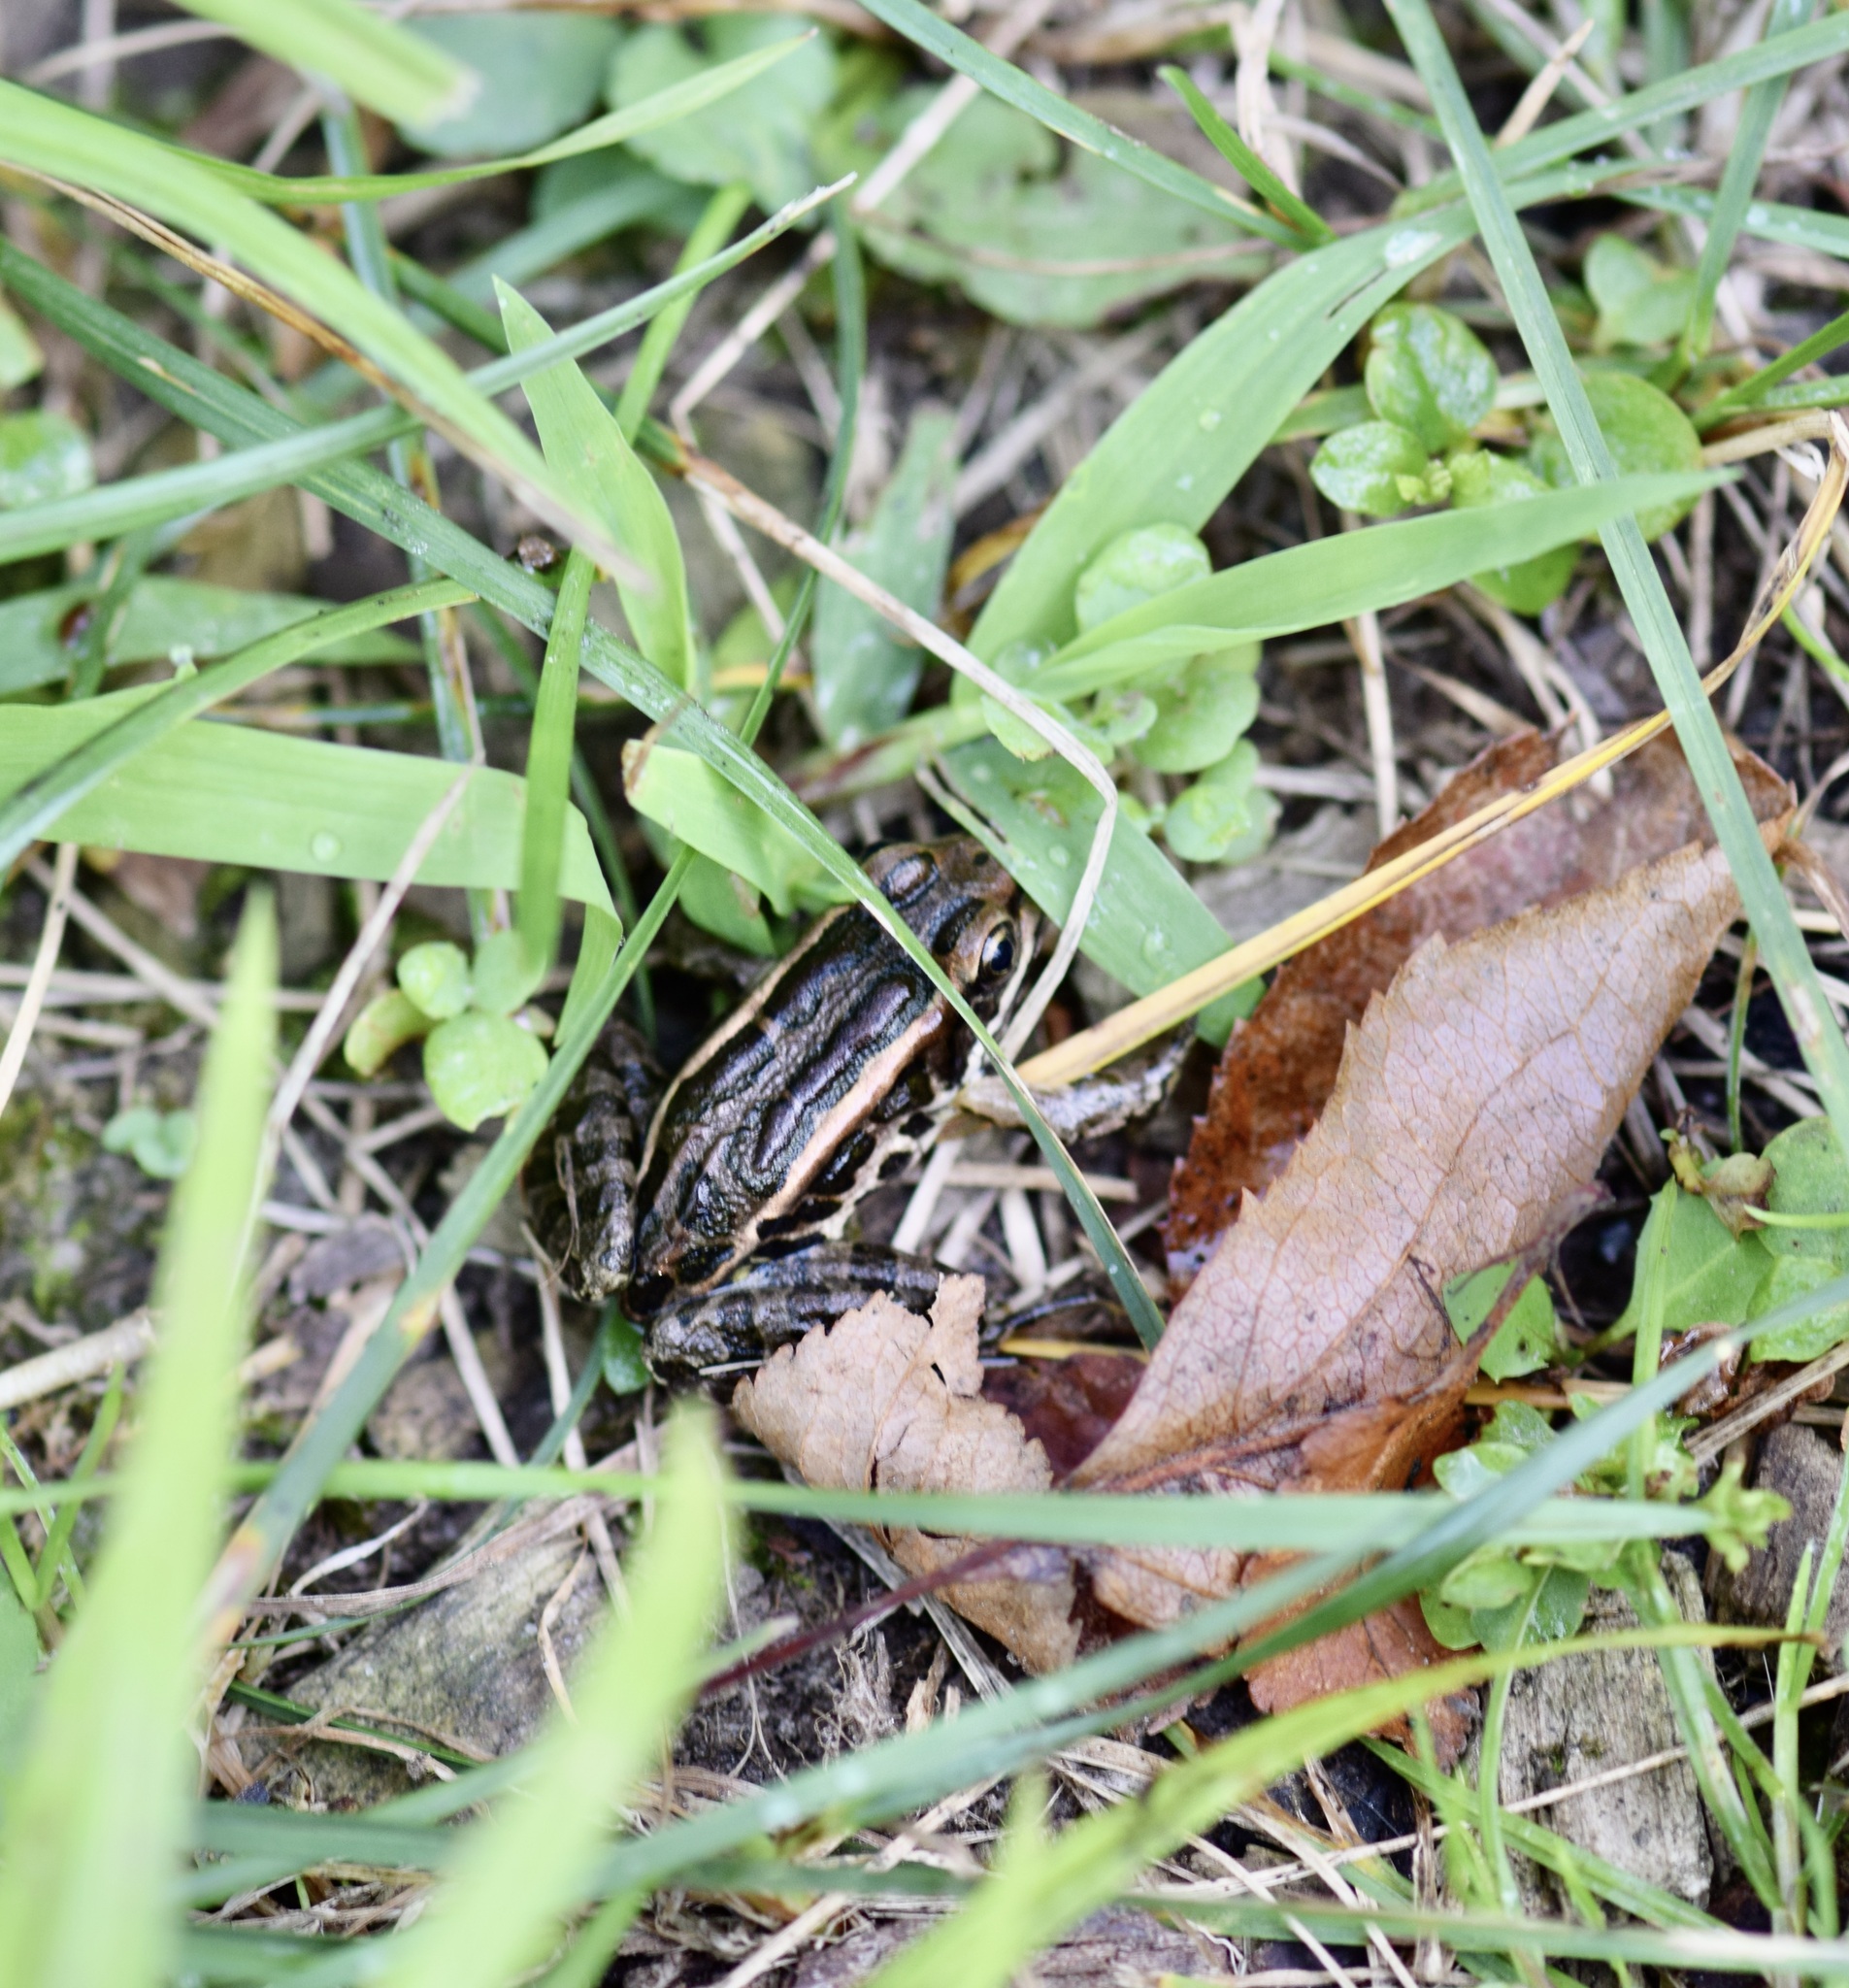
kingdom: Animalia
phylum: Chordata
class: Amphibia
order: Anura
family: Ranidae
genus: Lithobates
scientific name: Lithobates palustris
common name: Pickerel frog
